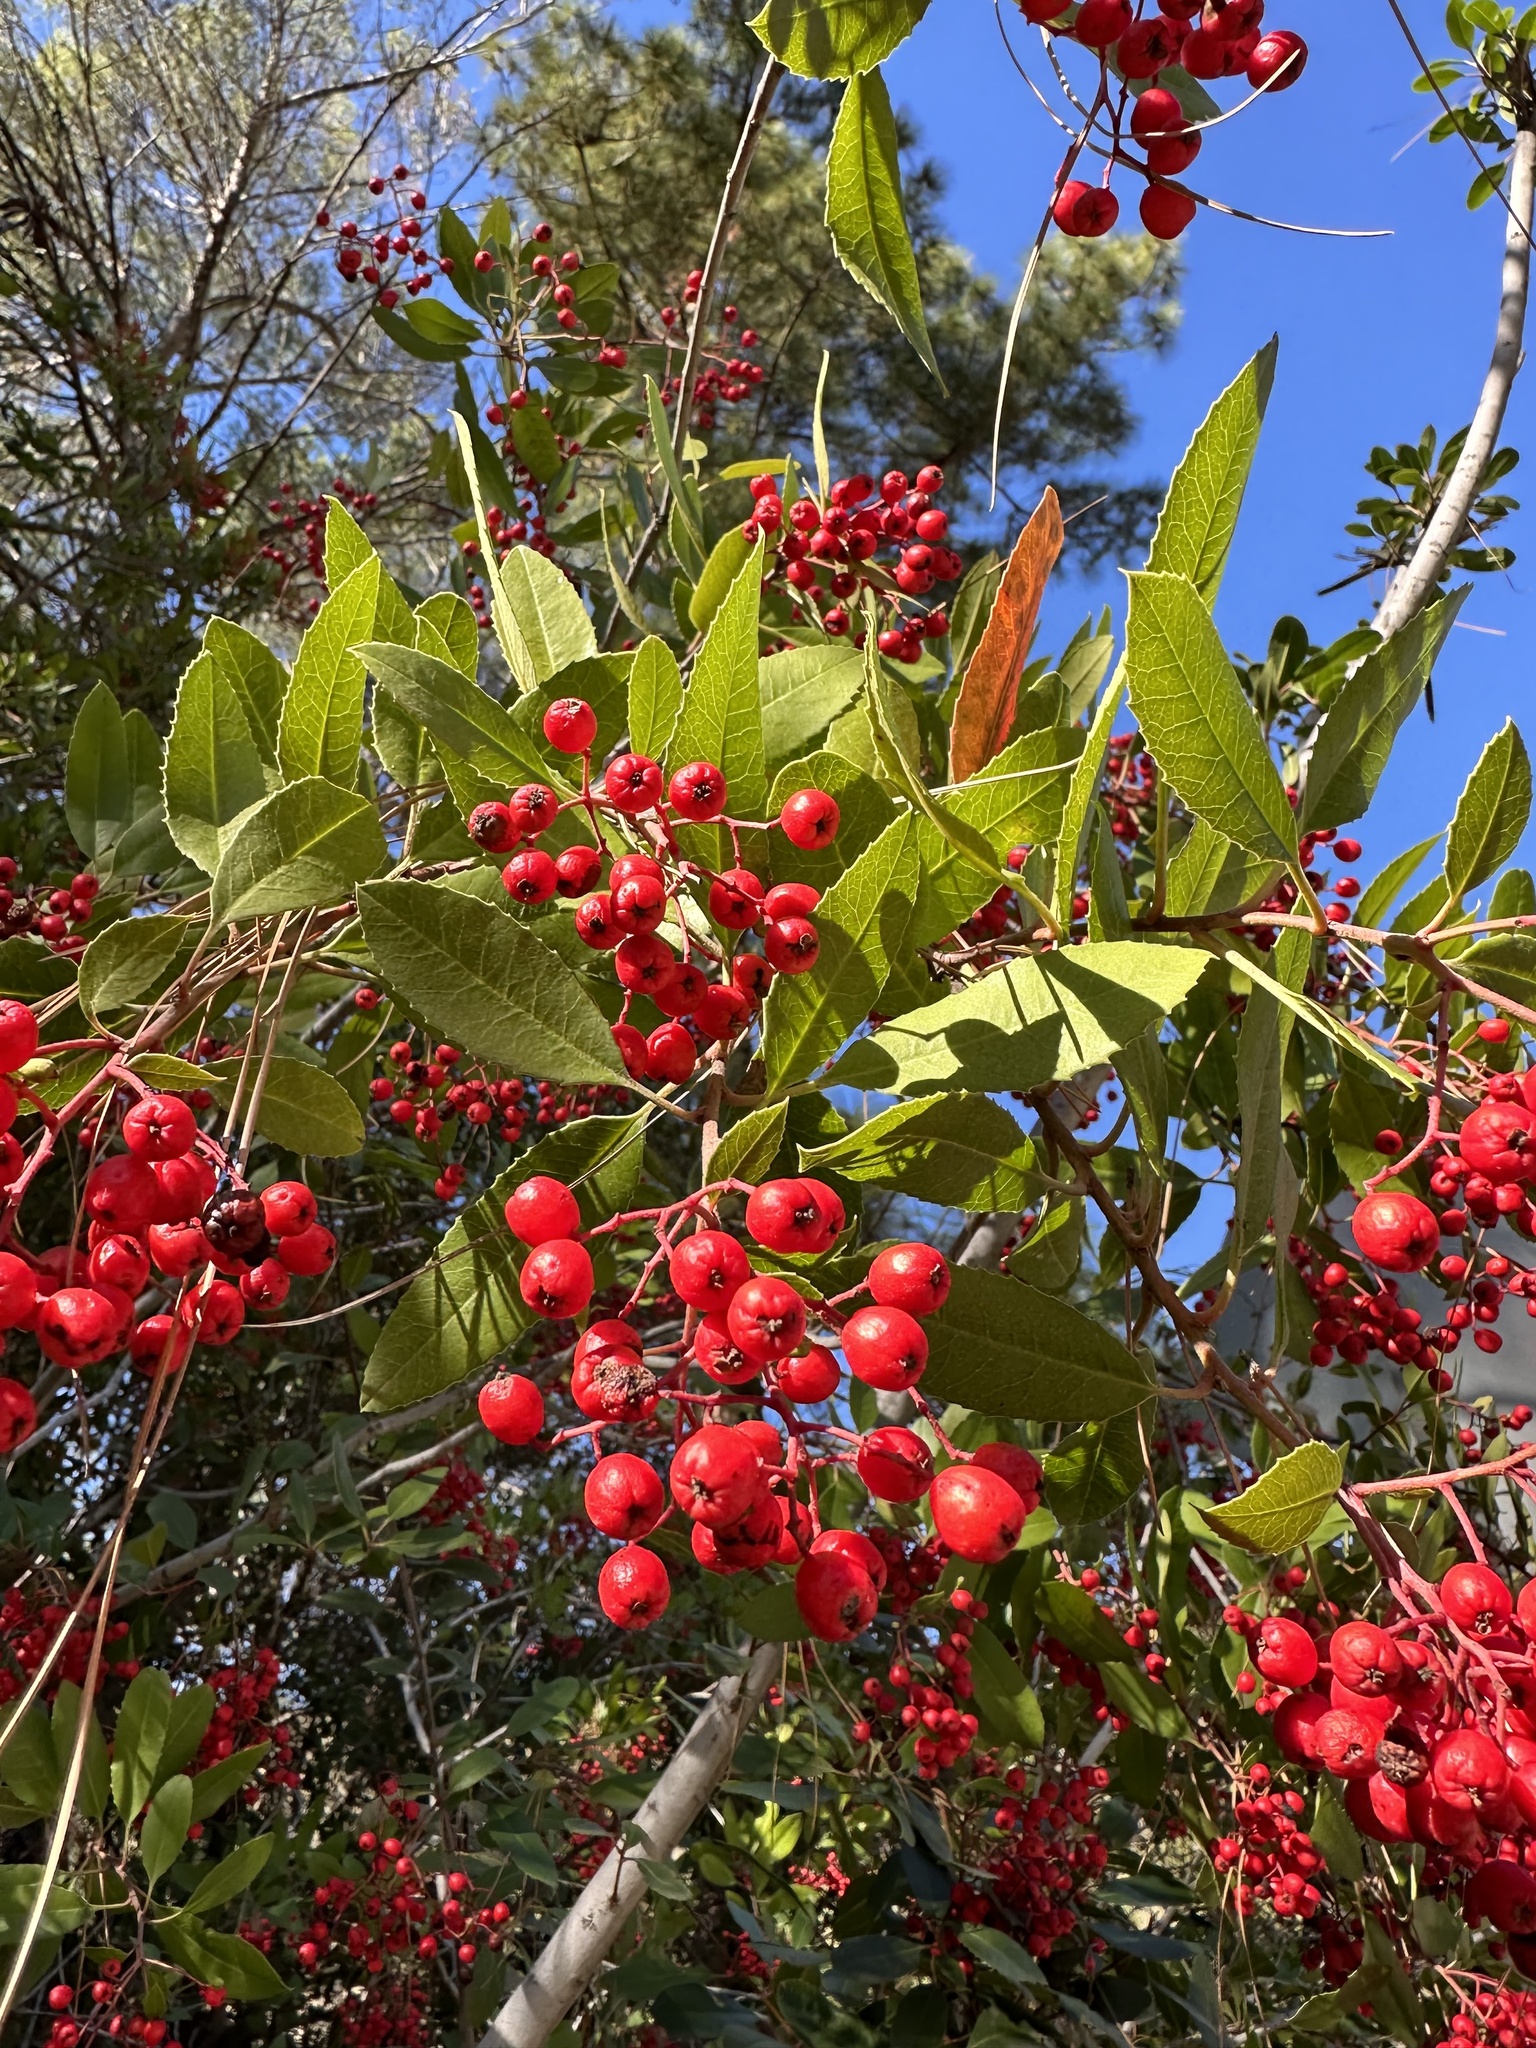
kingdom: Plantae
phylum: Tracheophyta
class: Magnoliopsida
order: Rosales
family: Rosaceae
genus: Heteromeles
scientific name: Heteromeles arbutifolia
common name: California-holly
